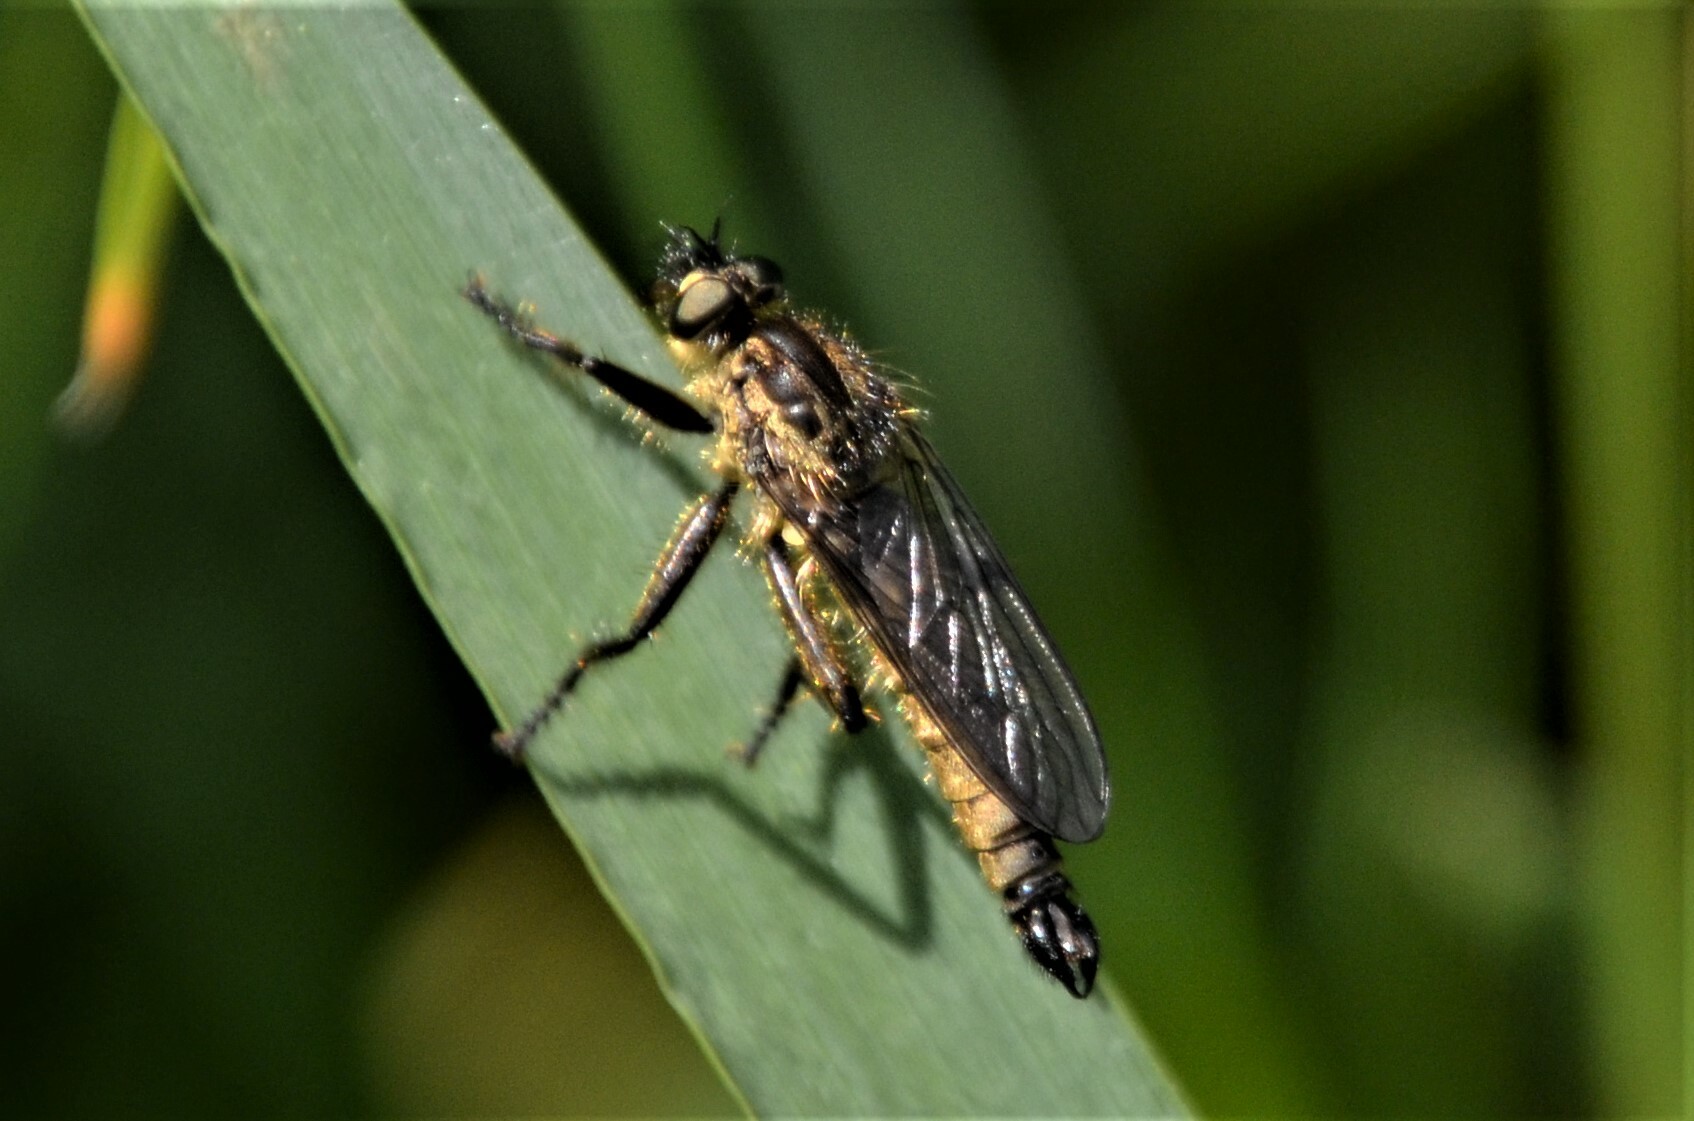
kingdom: Animalia
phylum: Arthropoda
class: Insecta
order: Diptera
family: Asilidae
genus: Didysmachus
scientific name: Didysmachus picipes
